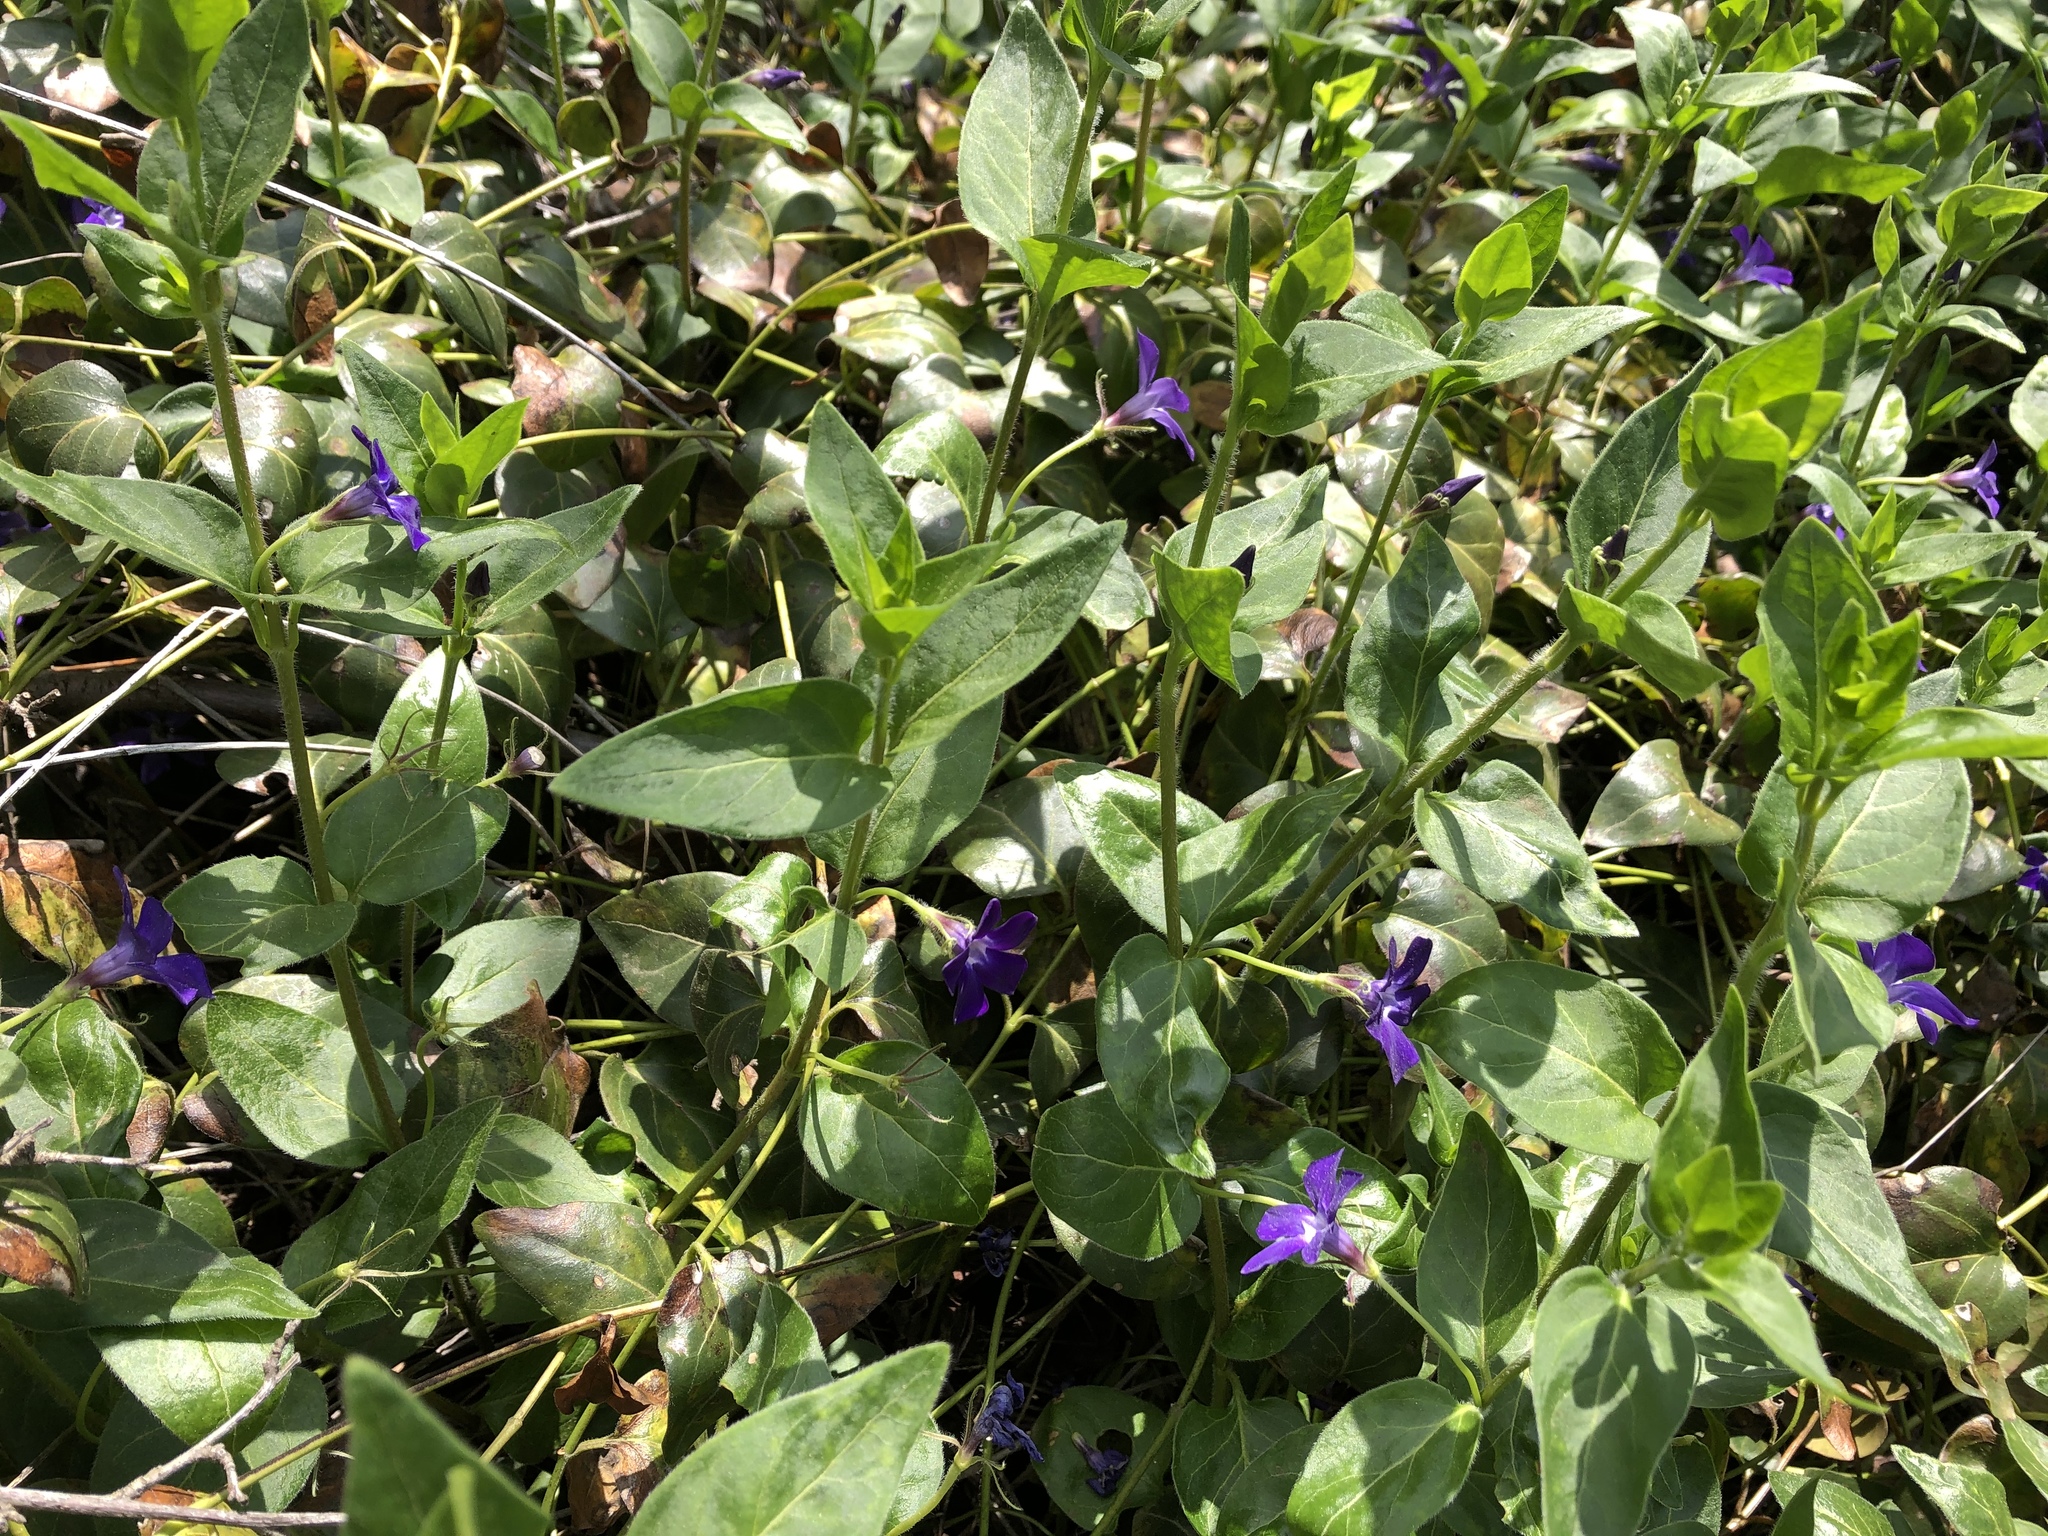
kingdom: Plantae
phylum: Tracheophyta
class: Magnoliopsida
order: Gentianales
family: Apocynaceae
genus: Vinca
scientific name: Vinca major
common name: Greater periwinkle
